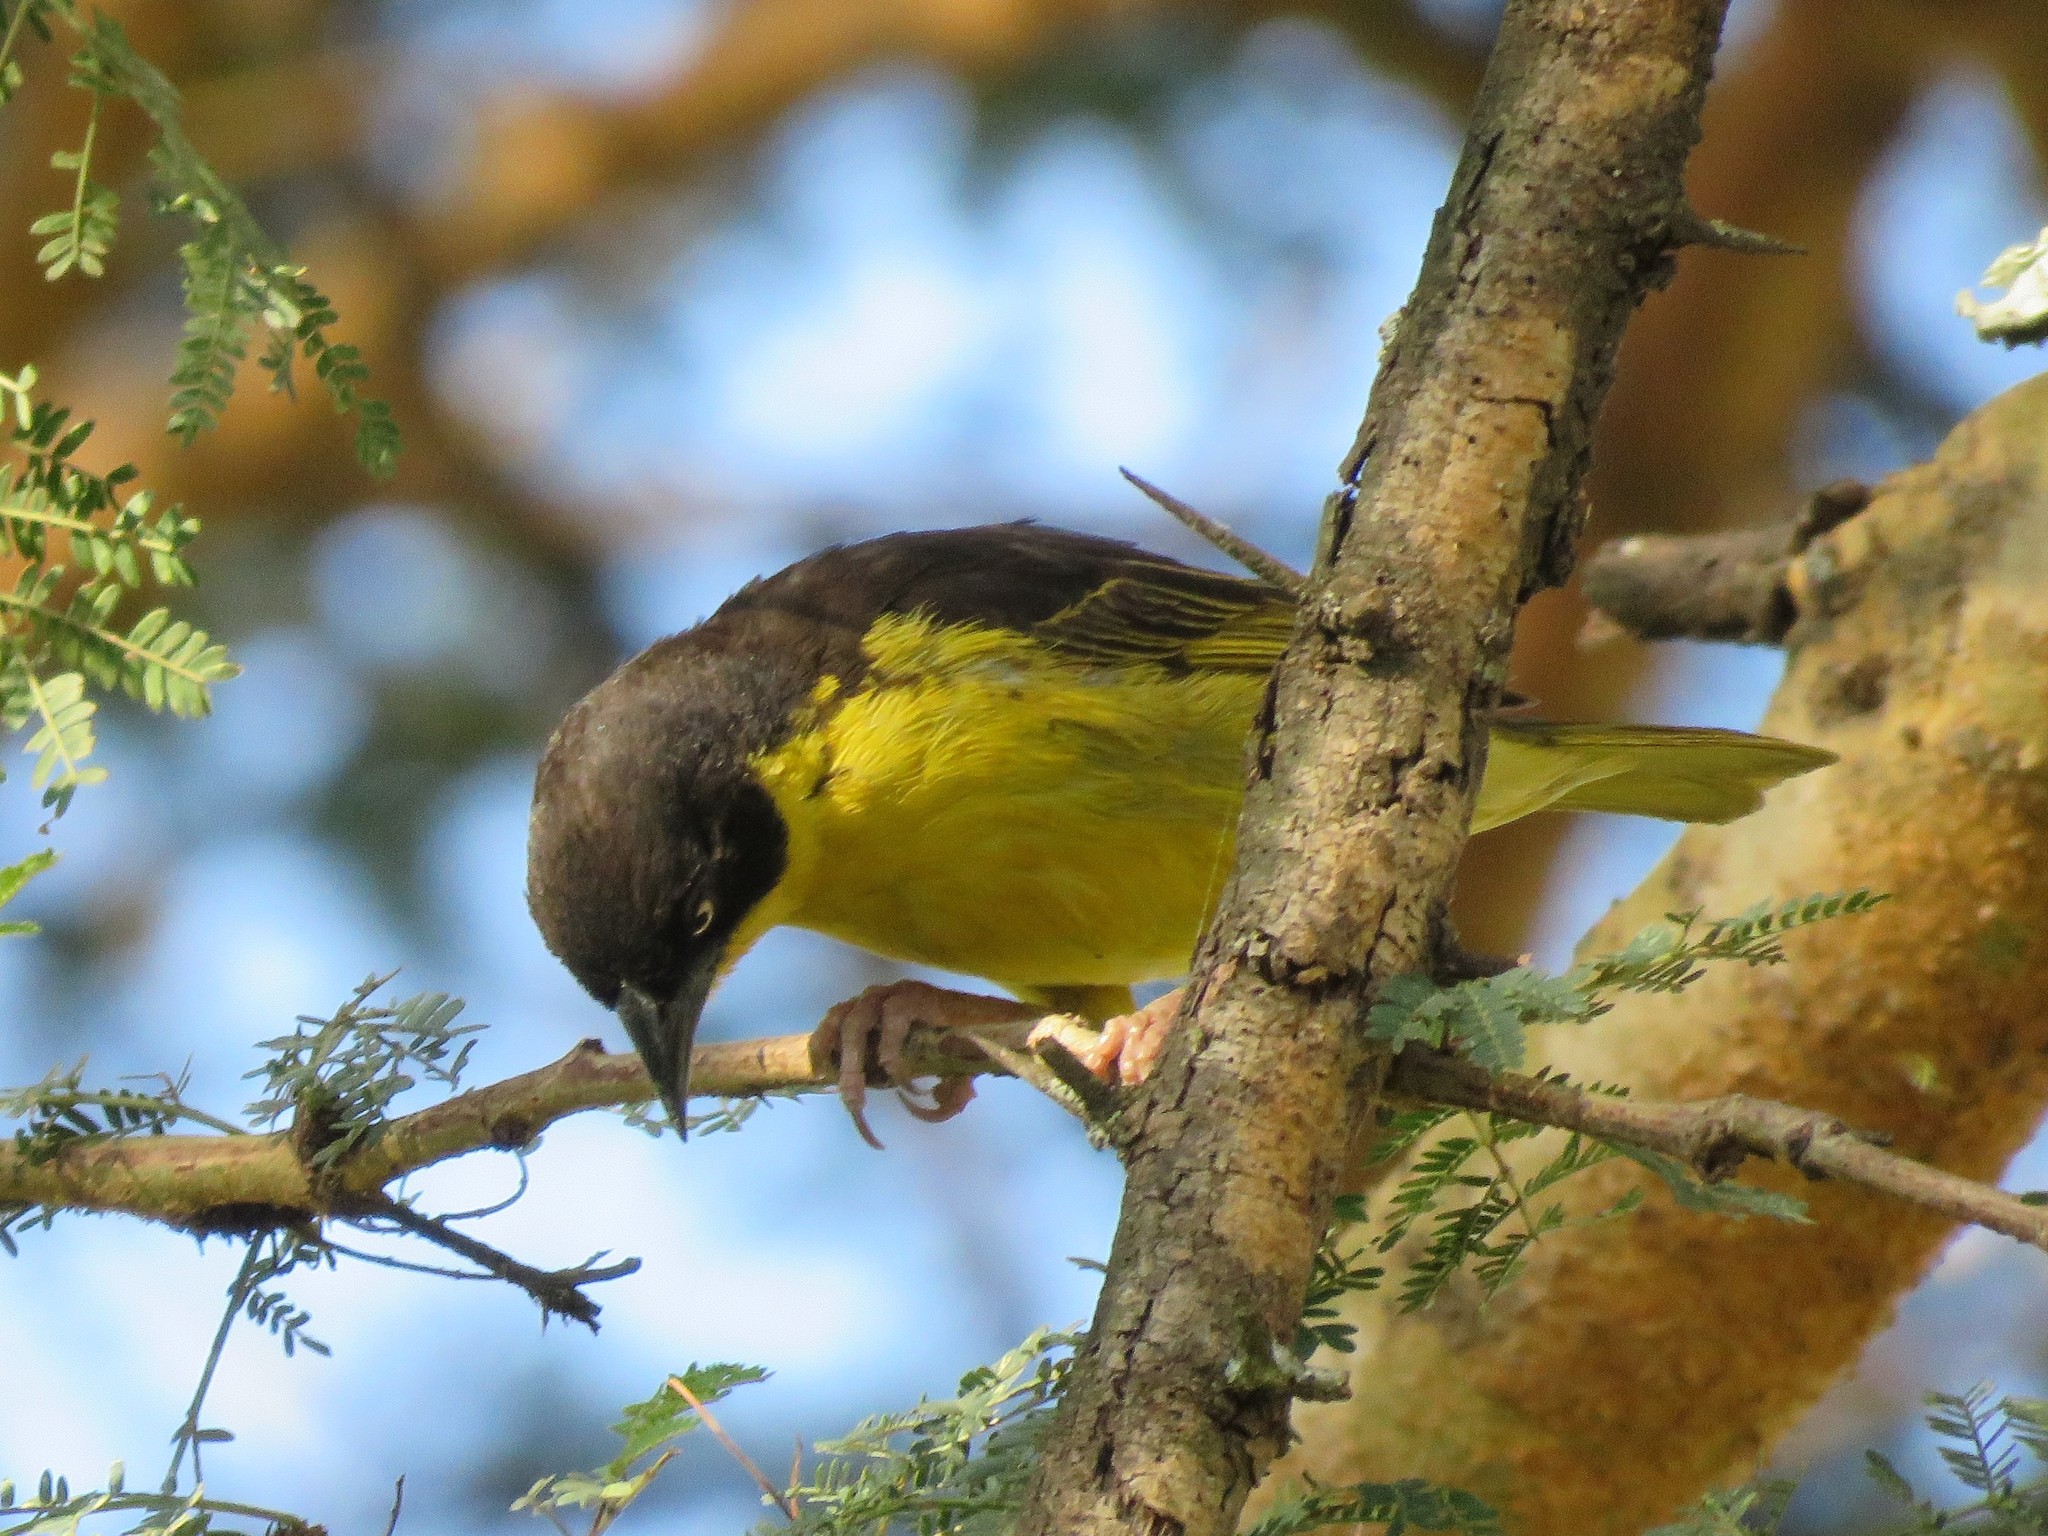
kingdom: Animalia
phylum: Chordata
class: Aves
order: Passeriformes
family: Ploceidae
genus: Ploceus
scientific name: Ploceus baglafecht
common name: Baglafecht weaver
